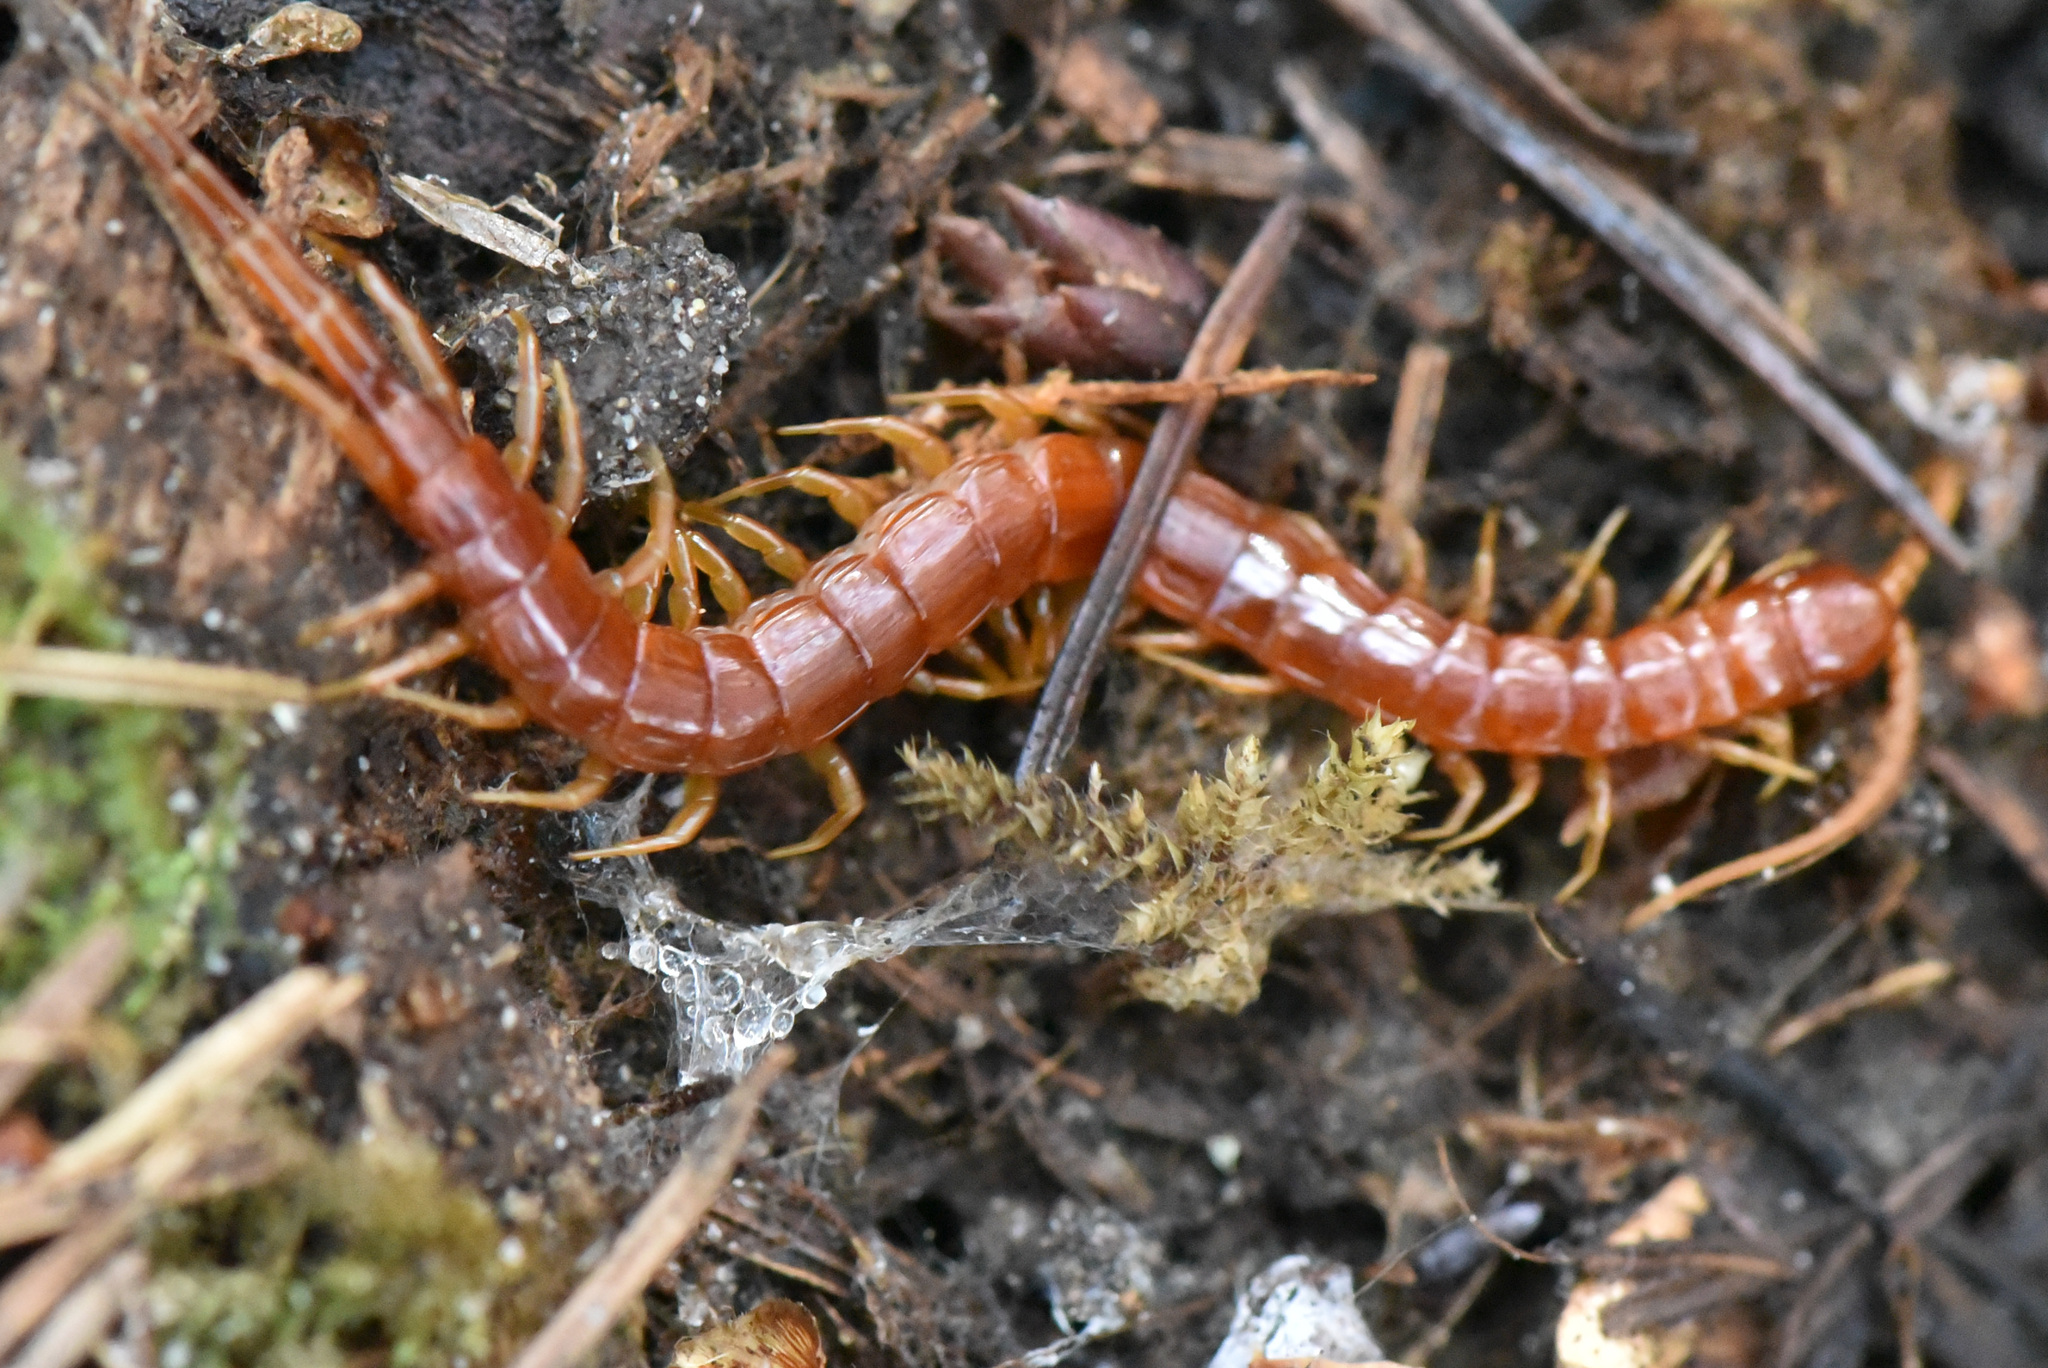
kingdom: Animalia
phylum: Arthropoda
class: Chilopoda
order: Scolopendromorpha
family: Scolopocryptopidae
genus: Scolopocryptops
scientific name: Scolopocryptops spinicaudus
